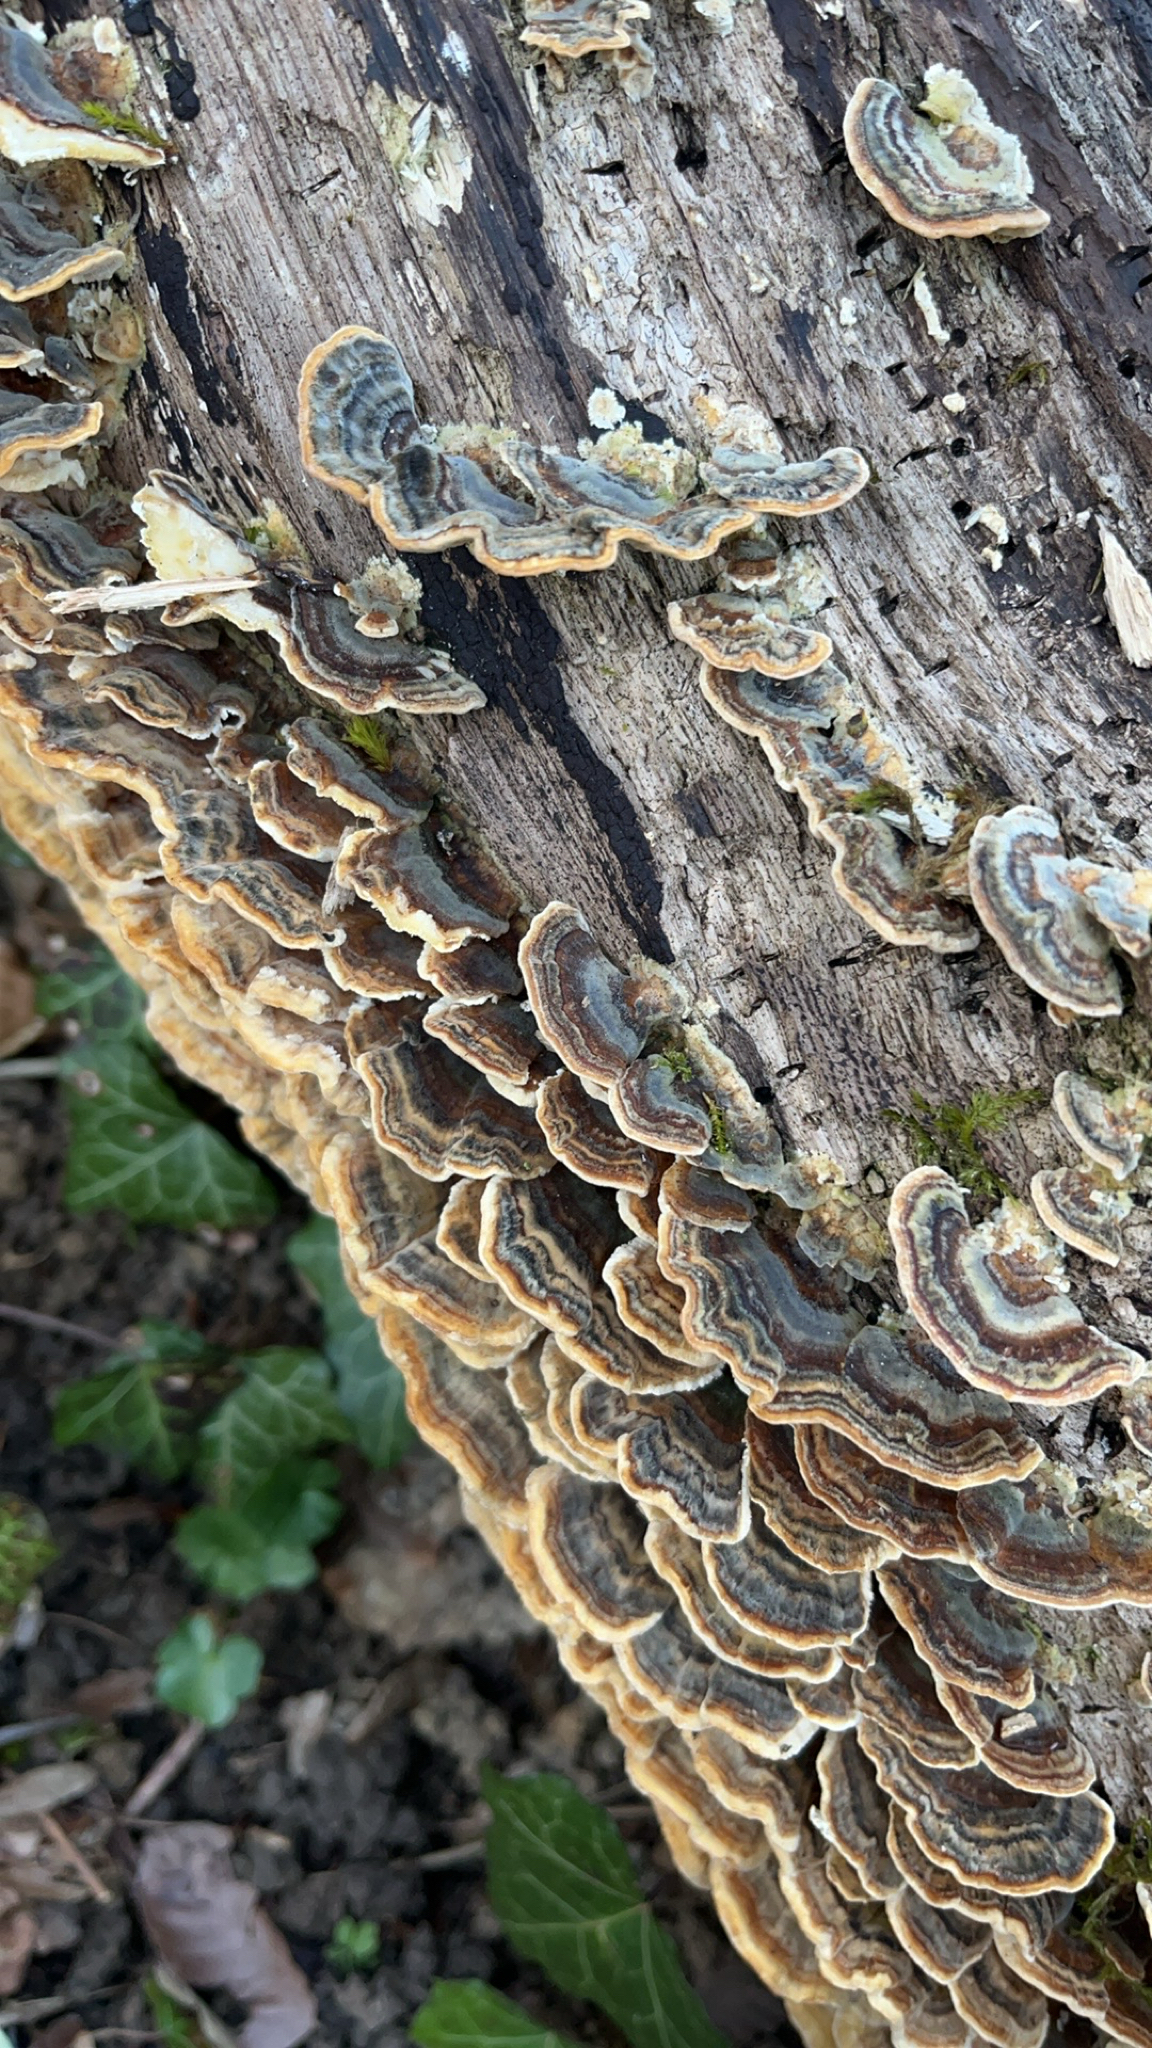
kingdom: Fungi
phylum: Basidiomycota
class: Agaricomycetes
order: Polyporales
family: Polyporaceae
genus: Trametes
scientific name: Trametes versicolor
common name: Turkeytail
